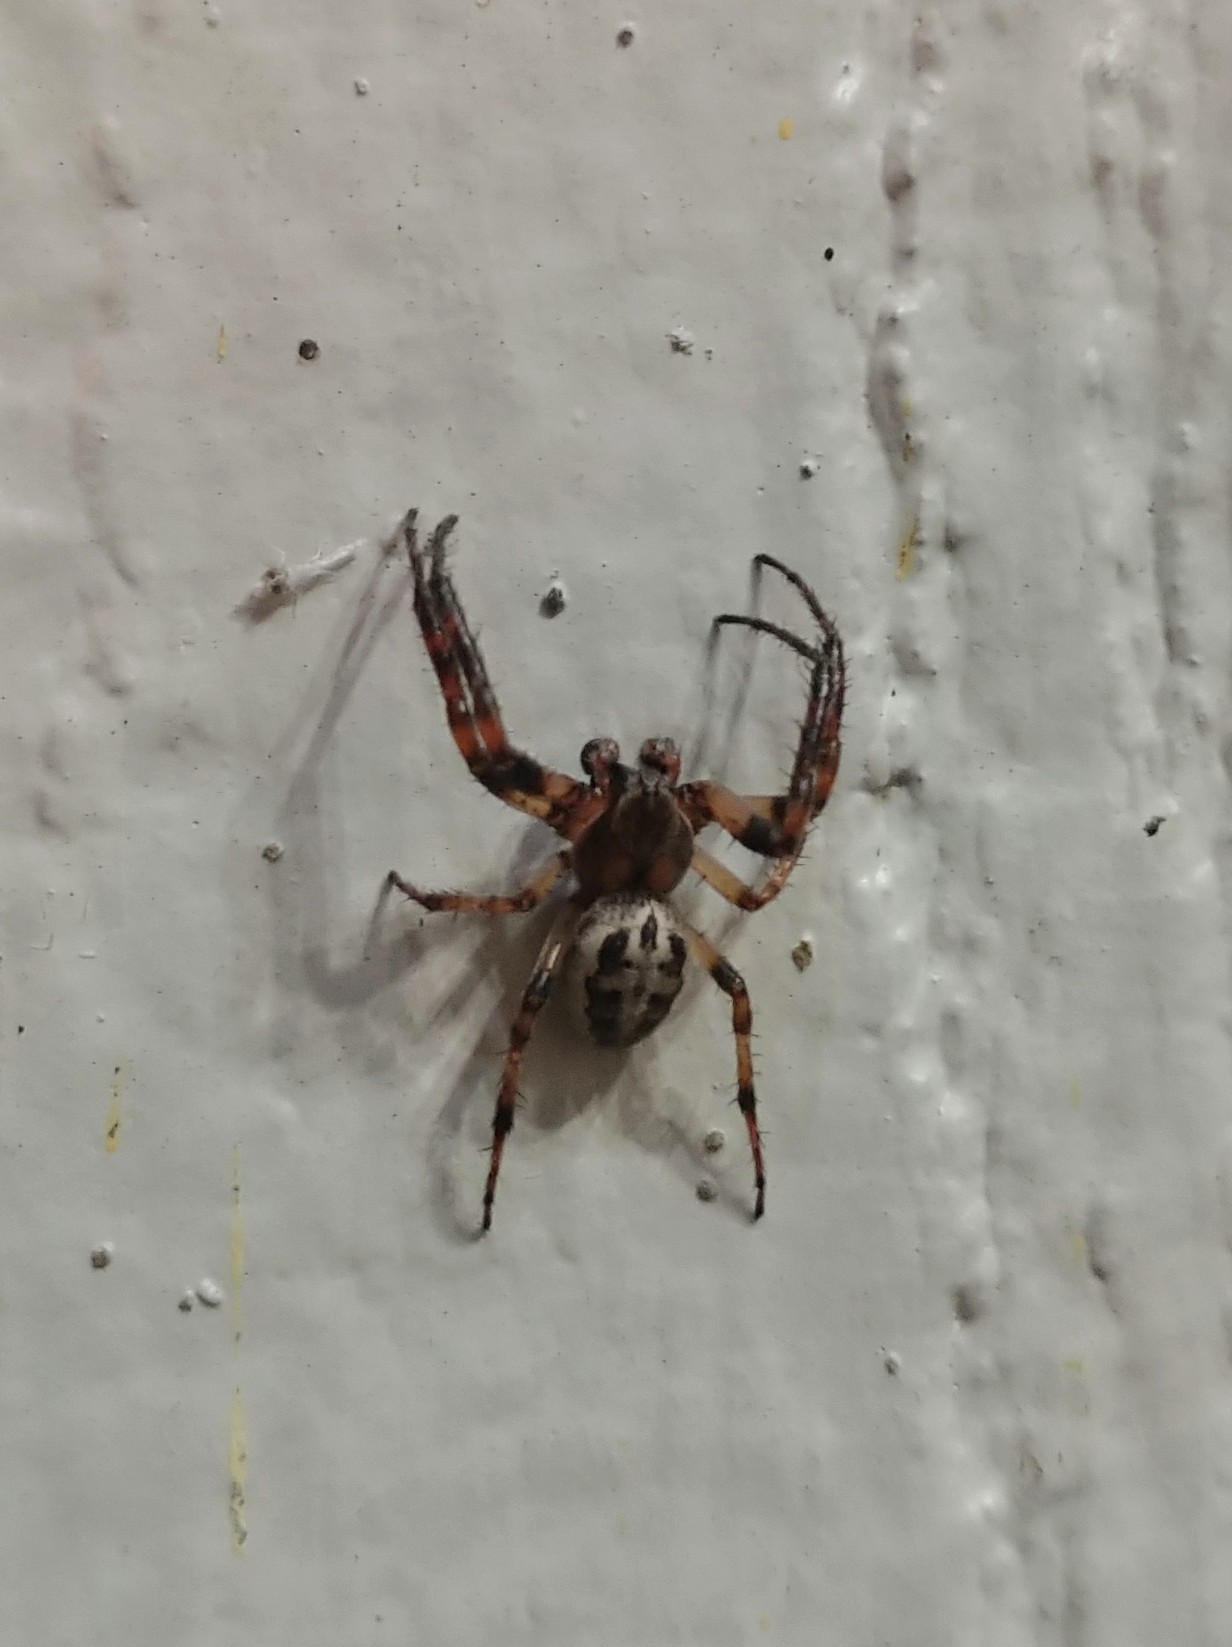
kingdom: Animalia
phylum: Arthropoda
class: Arachnida
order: Araneae
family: Araneidae
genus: Larinioides
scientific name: Larinioides cornutus
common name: Furrow orbweaver
